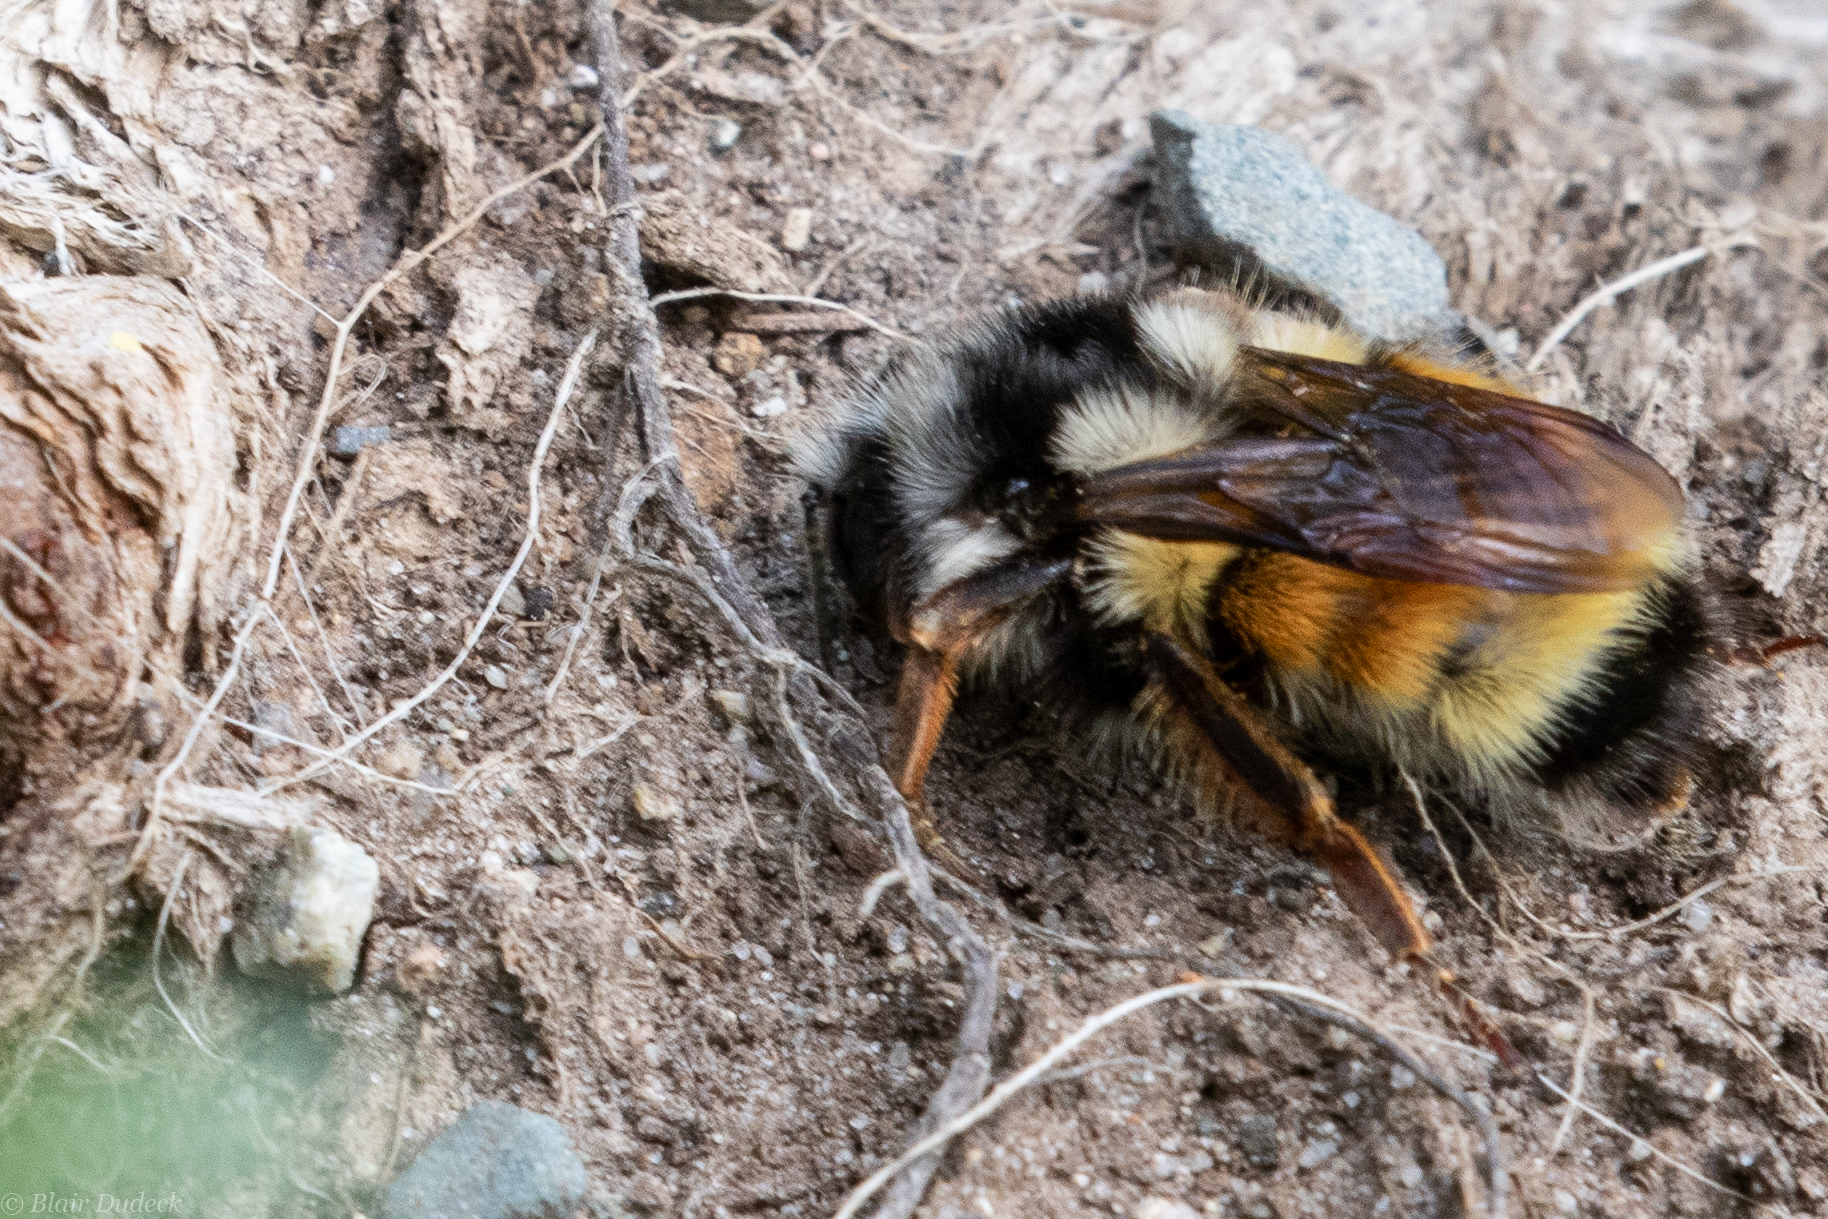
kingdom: Animalia
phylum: Arthropoda
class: Insecta
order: Hymenoptera
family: Apidae
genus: Bombus
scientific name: Bombus vancouverensis
